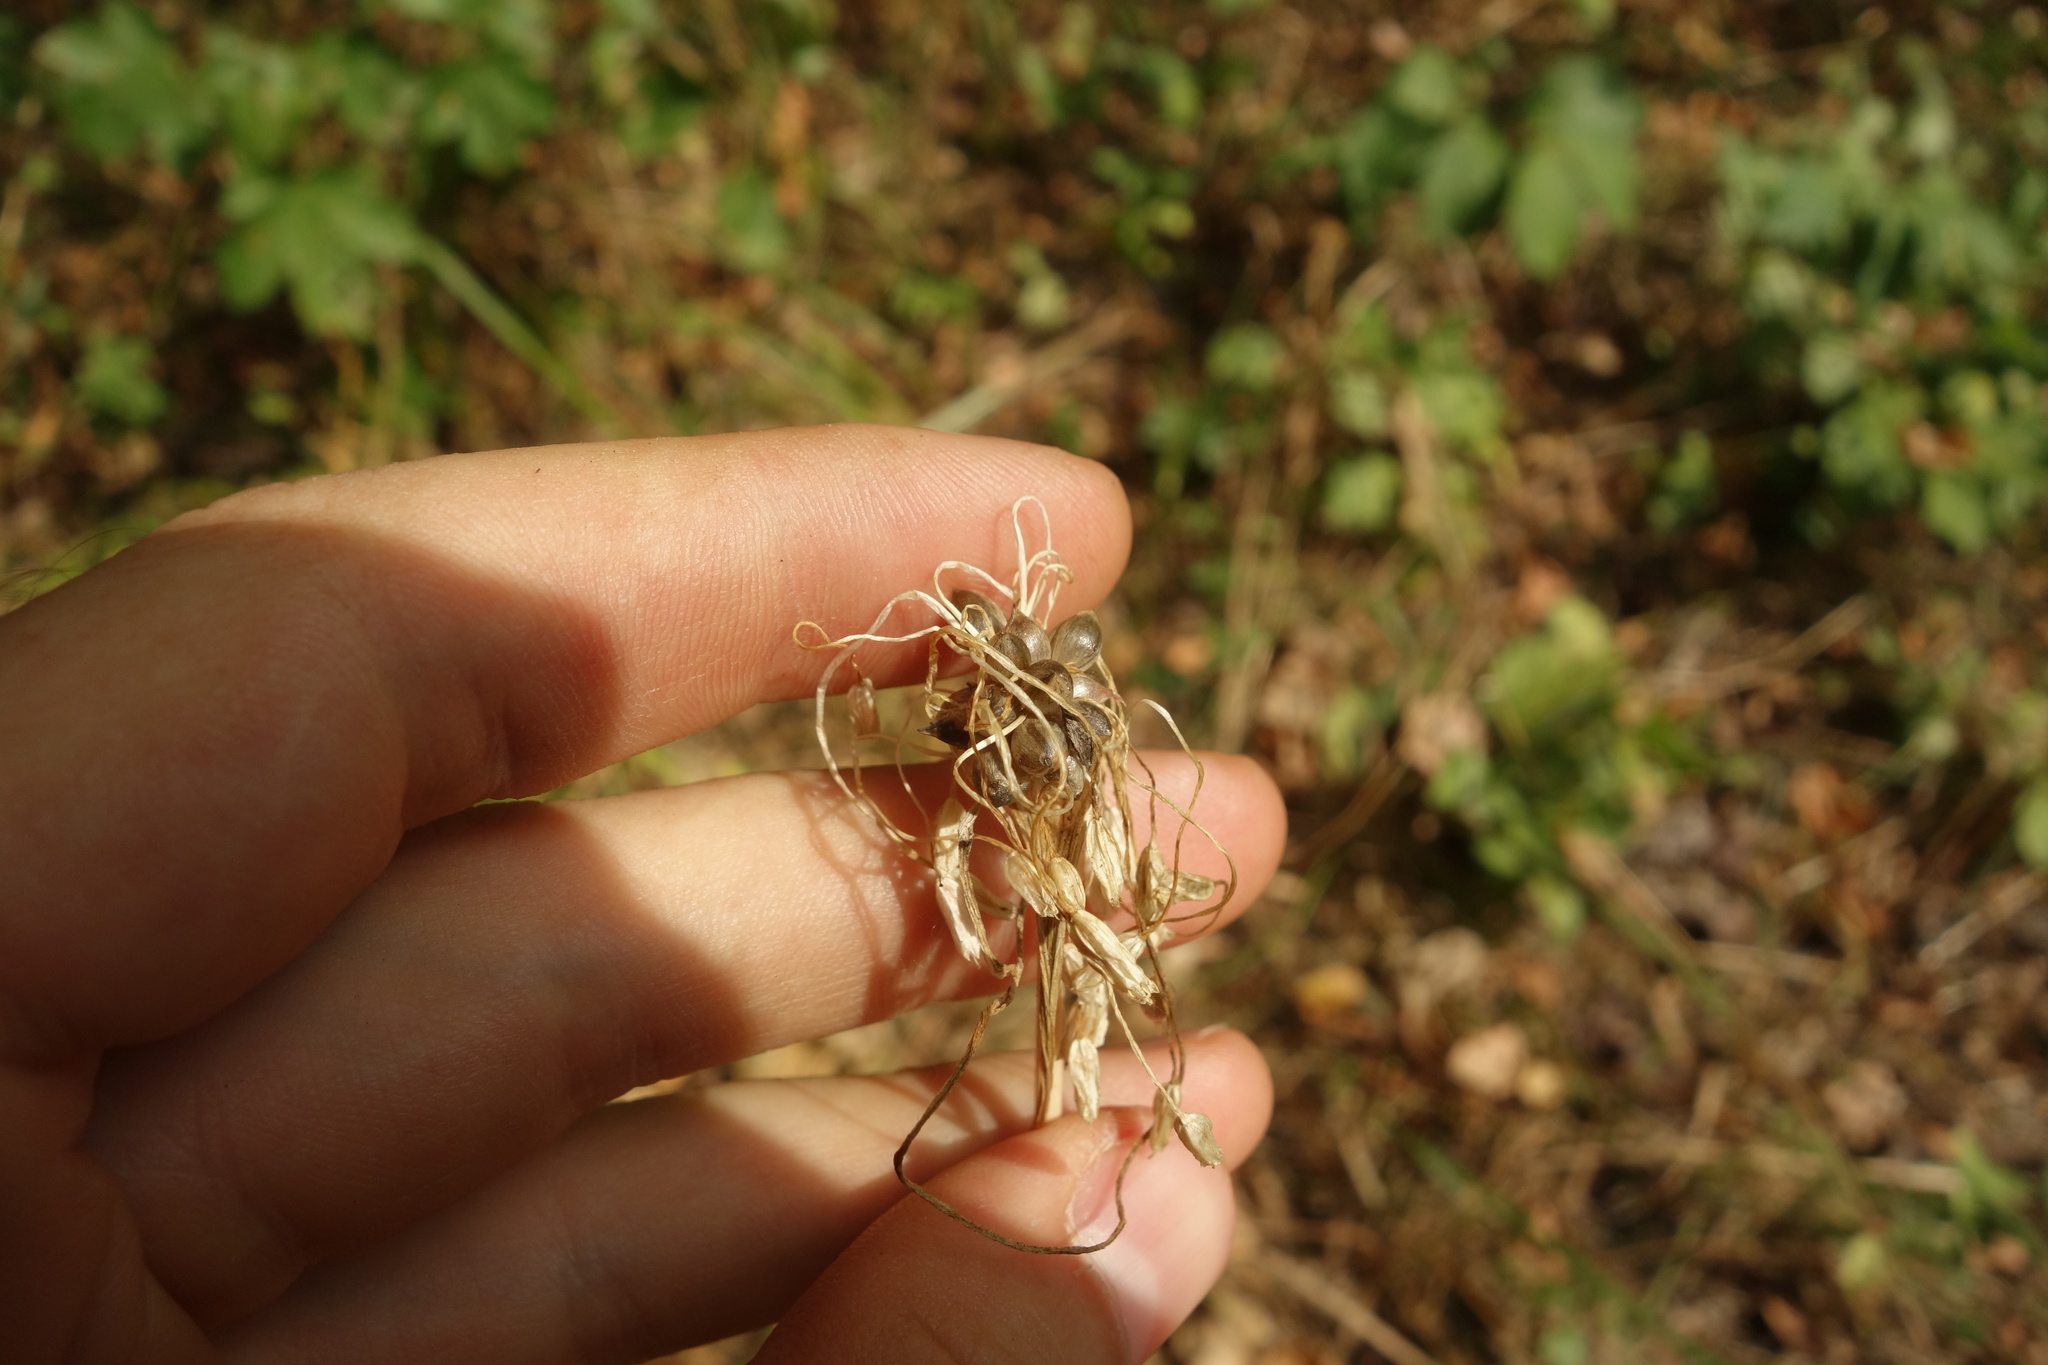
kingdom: Plantae
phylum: Tracheophyta
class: Liliopsida
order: Asparagales
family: Amaryllidaceae
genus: Allium
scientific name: Allium oleraceum
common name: Field garlic
